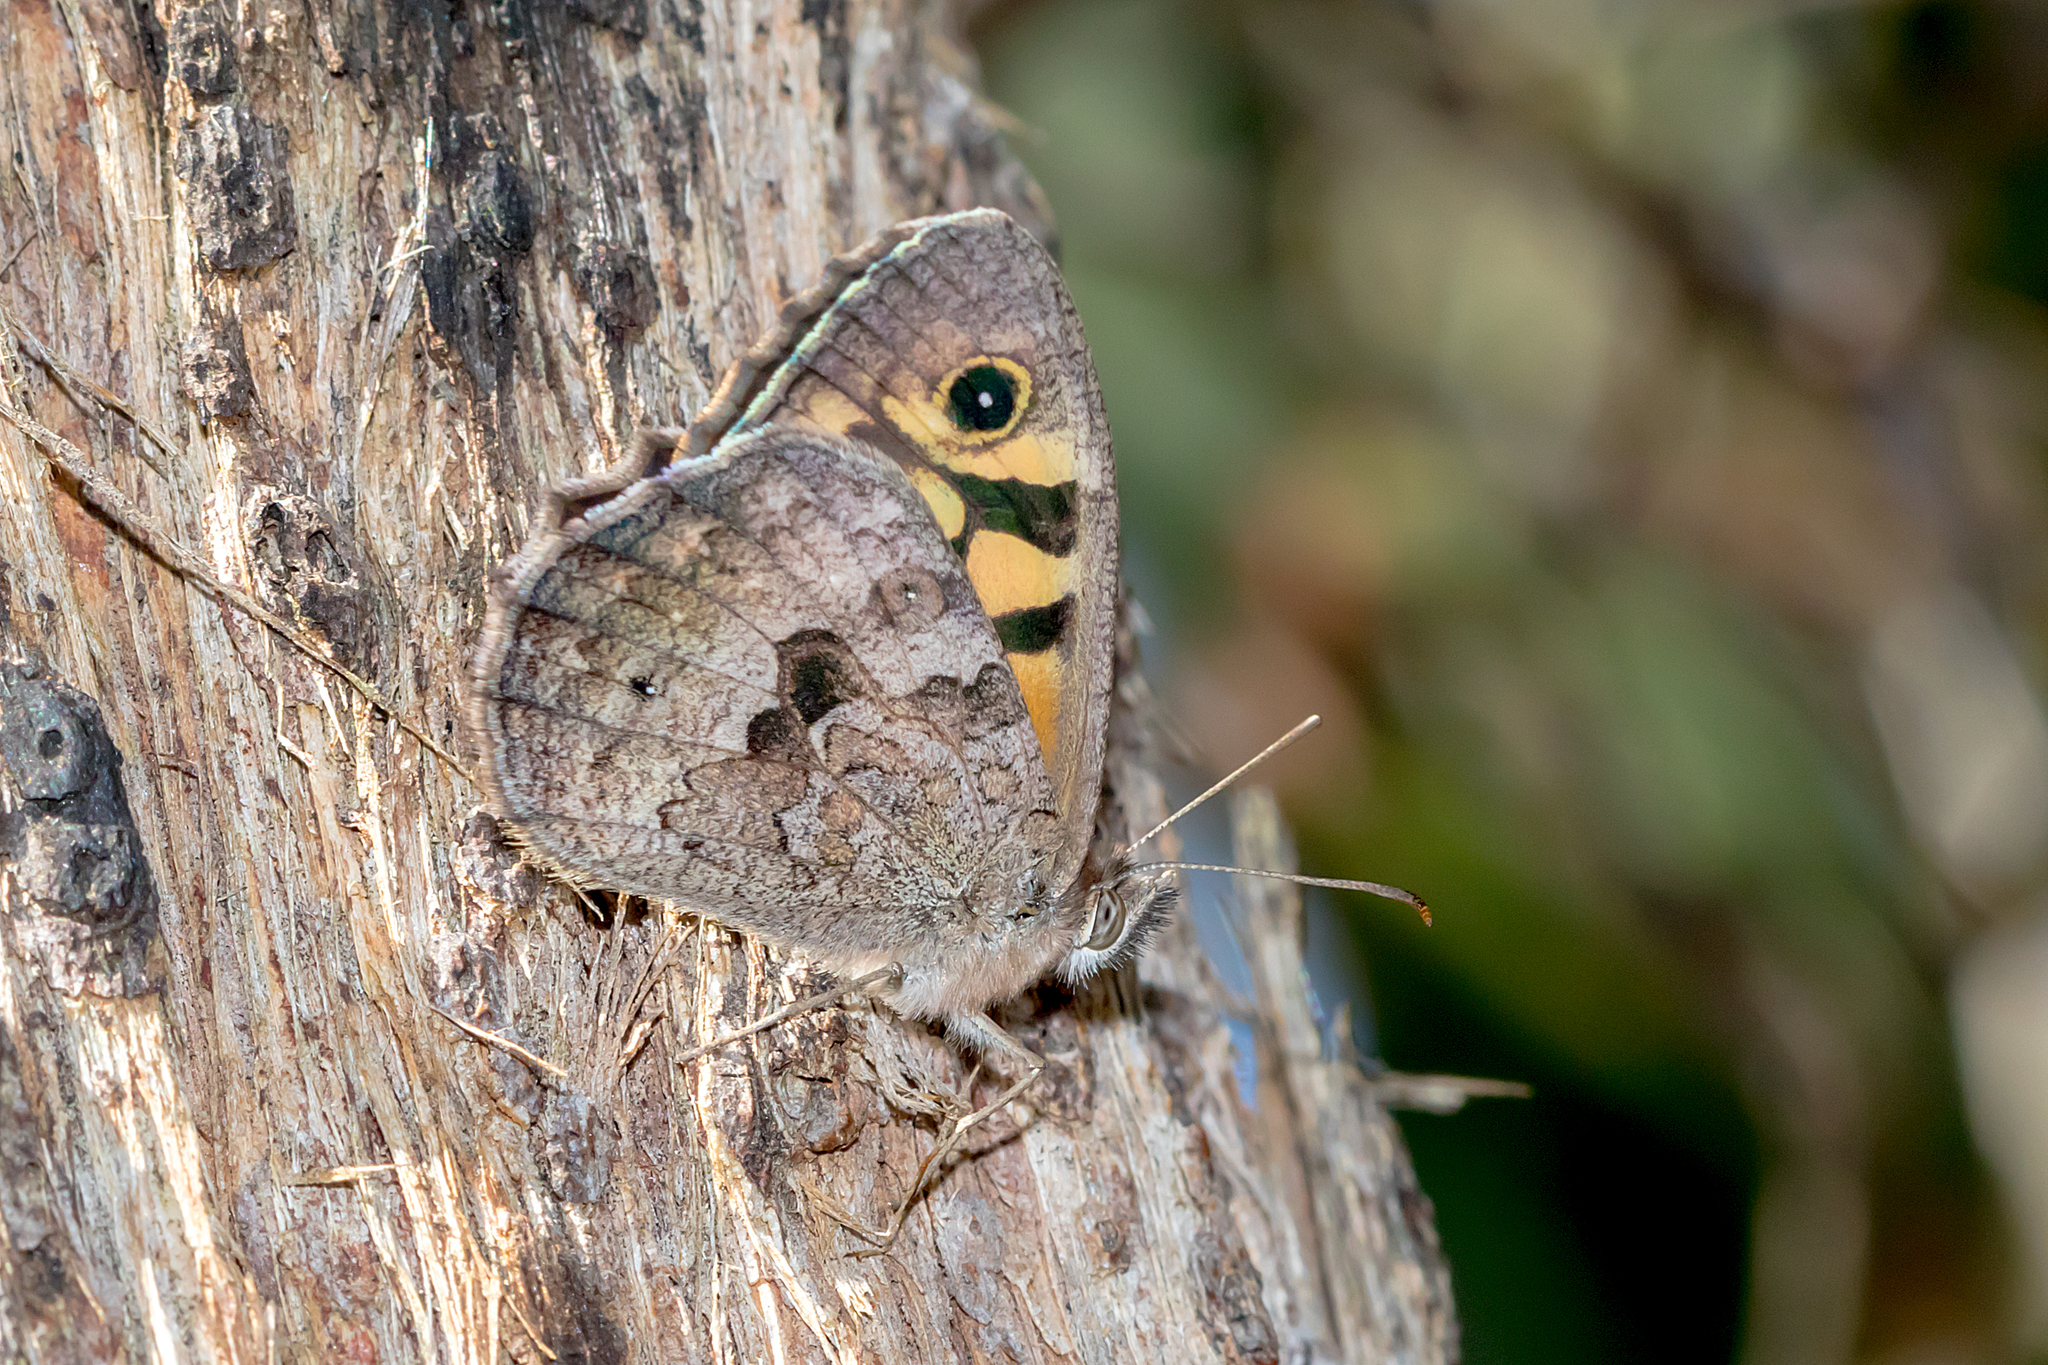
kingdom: Animalia
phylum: Arthropoda
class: Insecta
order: Lepidoptera
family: Nymphalidae
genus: Geitoneura
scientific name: Geitoneura klugii
